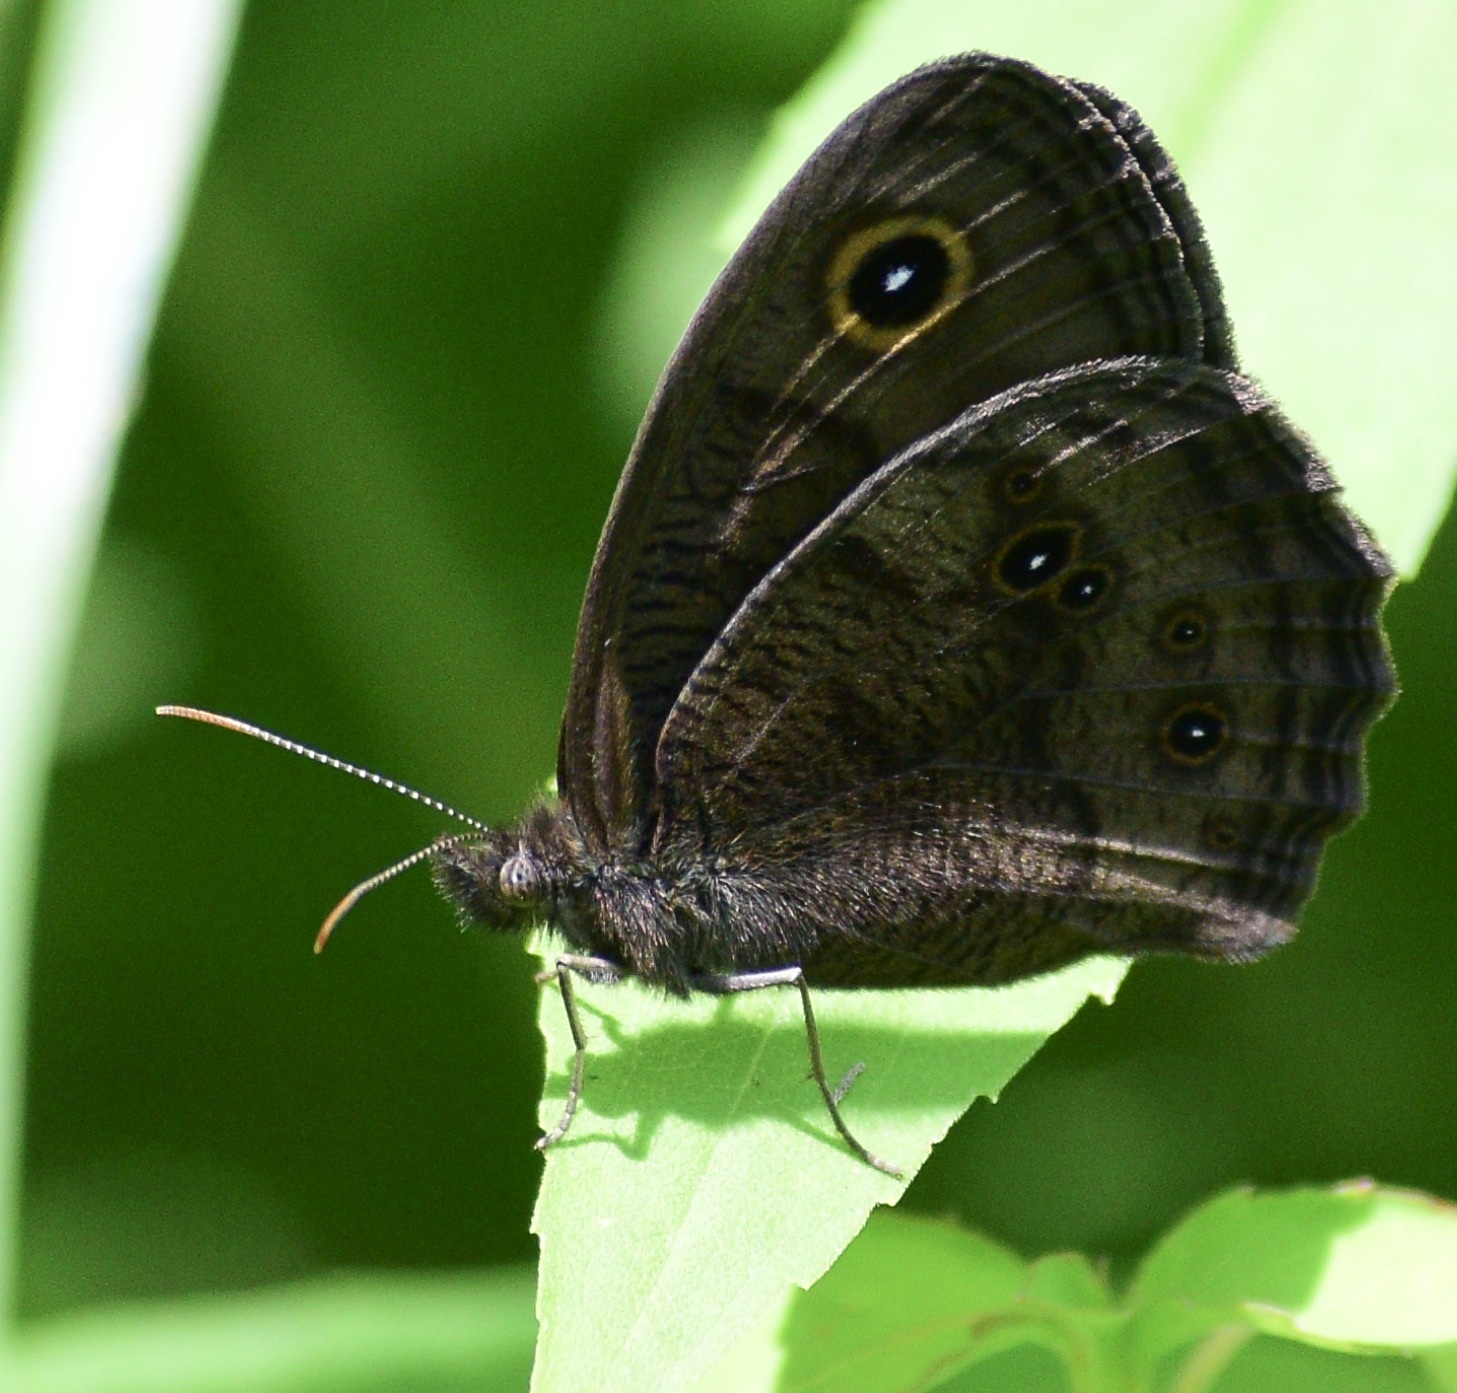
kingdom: Animalia
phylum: Arthropoda
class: Insecta
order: Lepidoptera
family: Nymphalidae
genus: Cercyonis
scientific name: Cercyonis pegala
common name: Common wood-nymph
